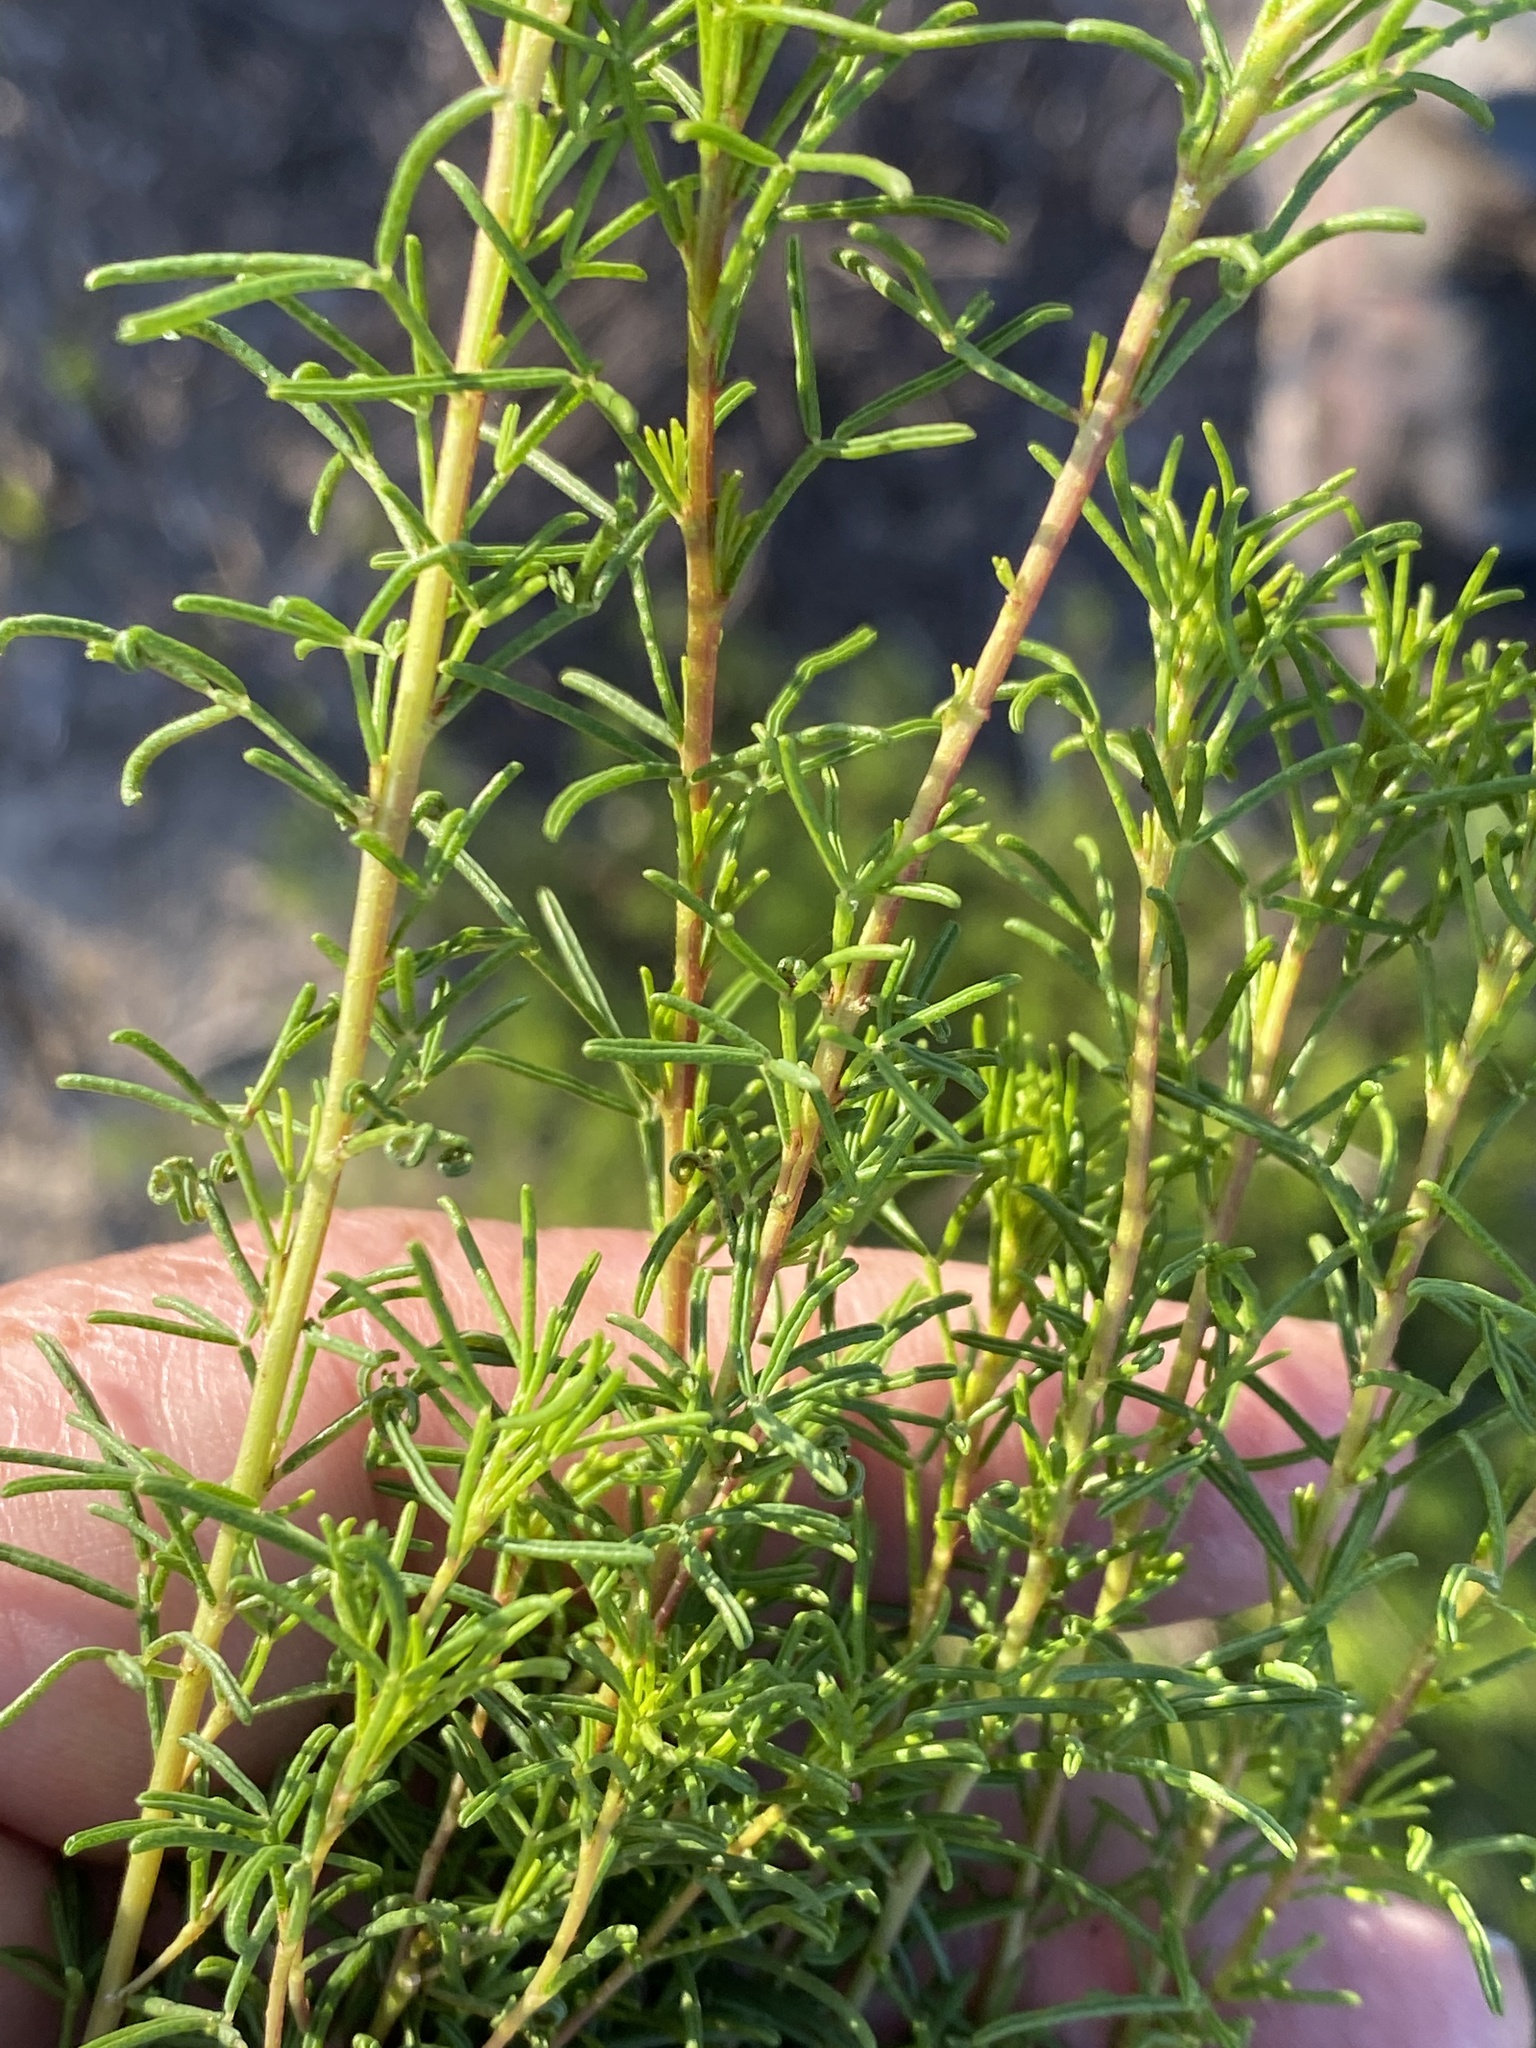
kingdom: Plantae
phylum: Tracheophyta
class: Magnoliopsida
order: Fabales
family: Fabaceae
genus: Dalea
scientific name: Dalea pinnata
